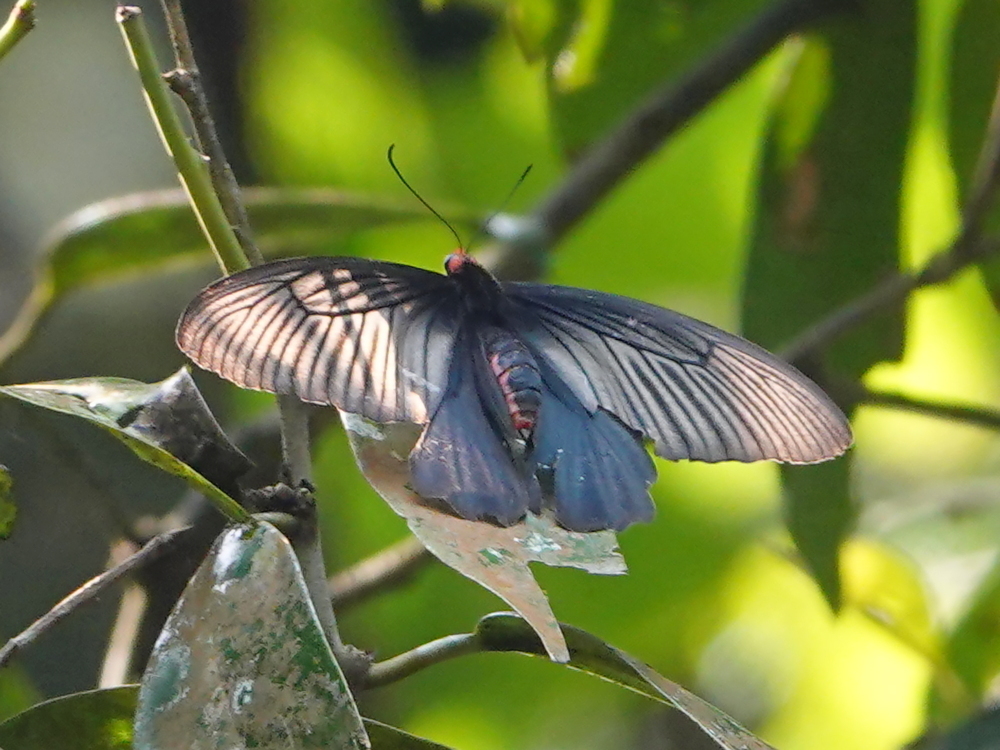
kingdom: Animalia
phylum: Arthropoda
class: Insecta
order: Lepidoptera
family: Papilionidae
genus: Atrophaneura
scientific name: Atrophaneura varuna
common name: Common batwing
